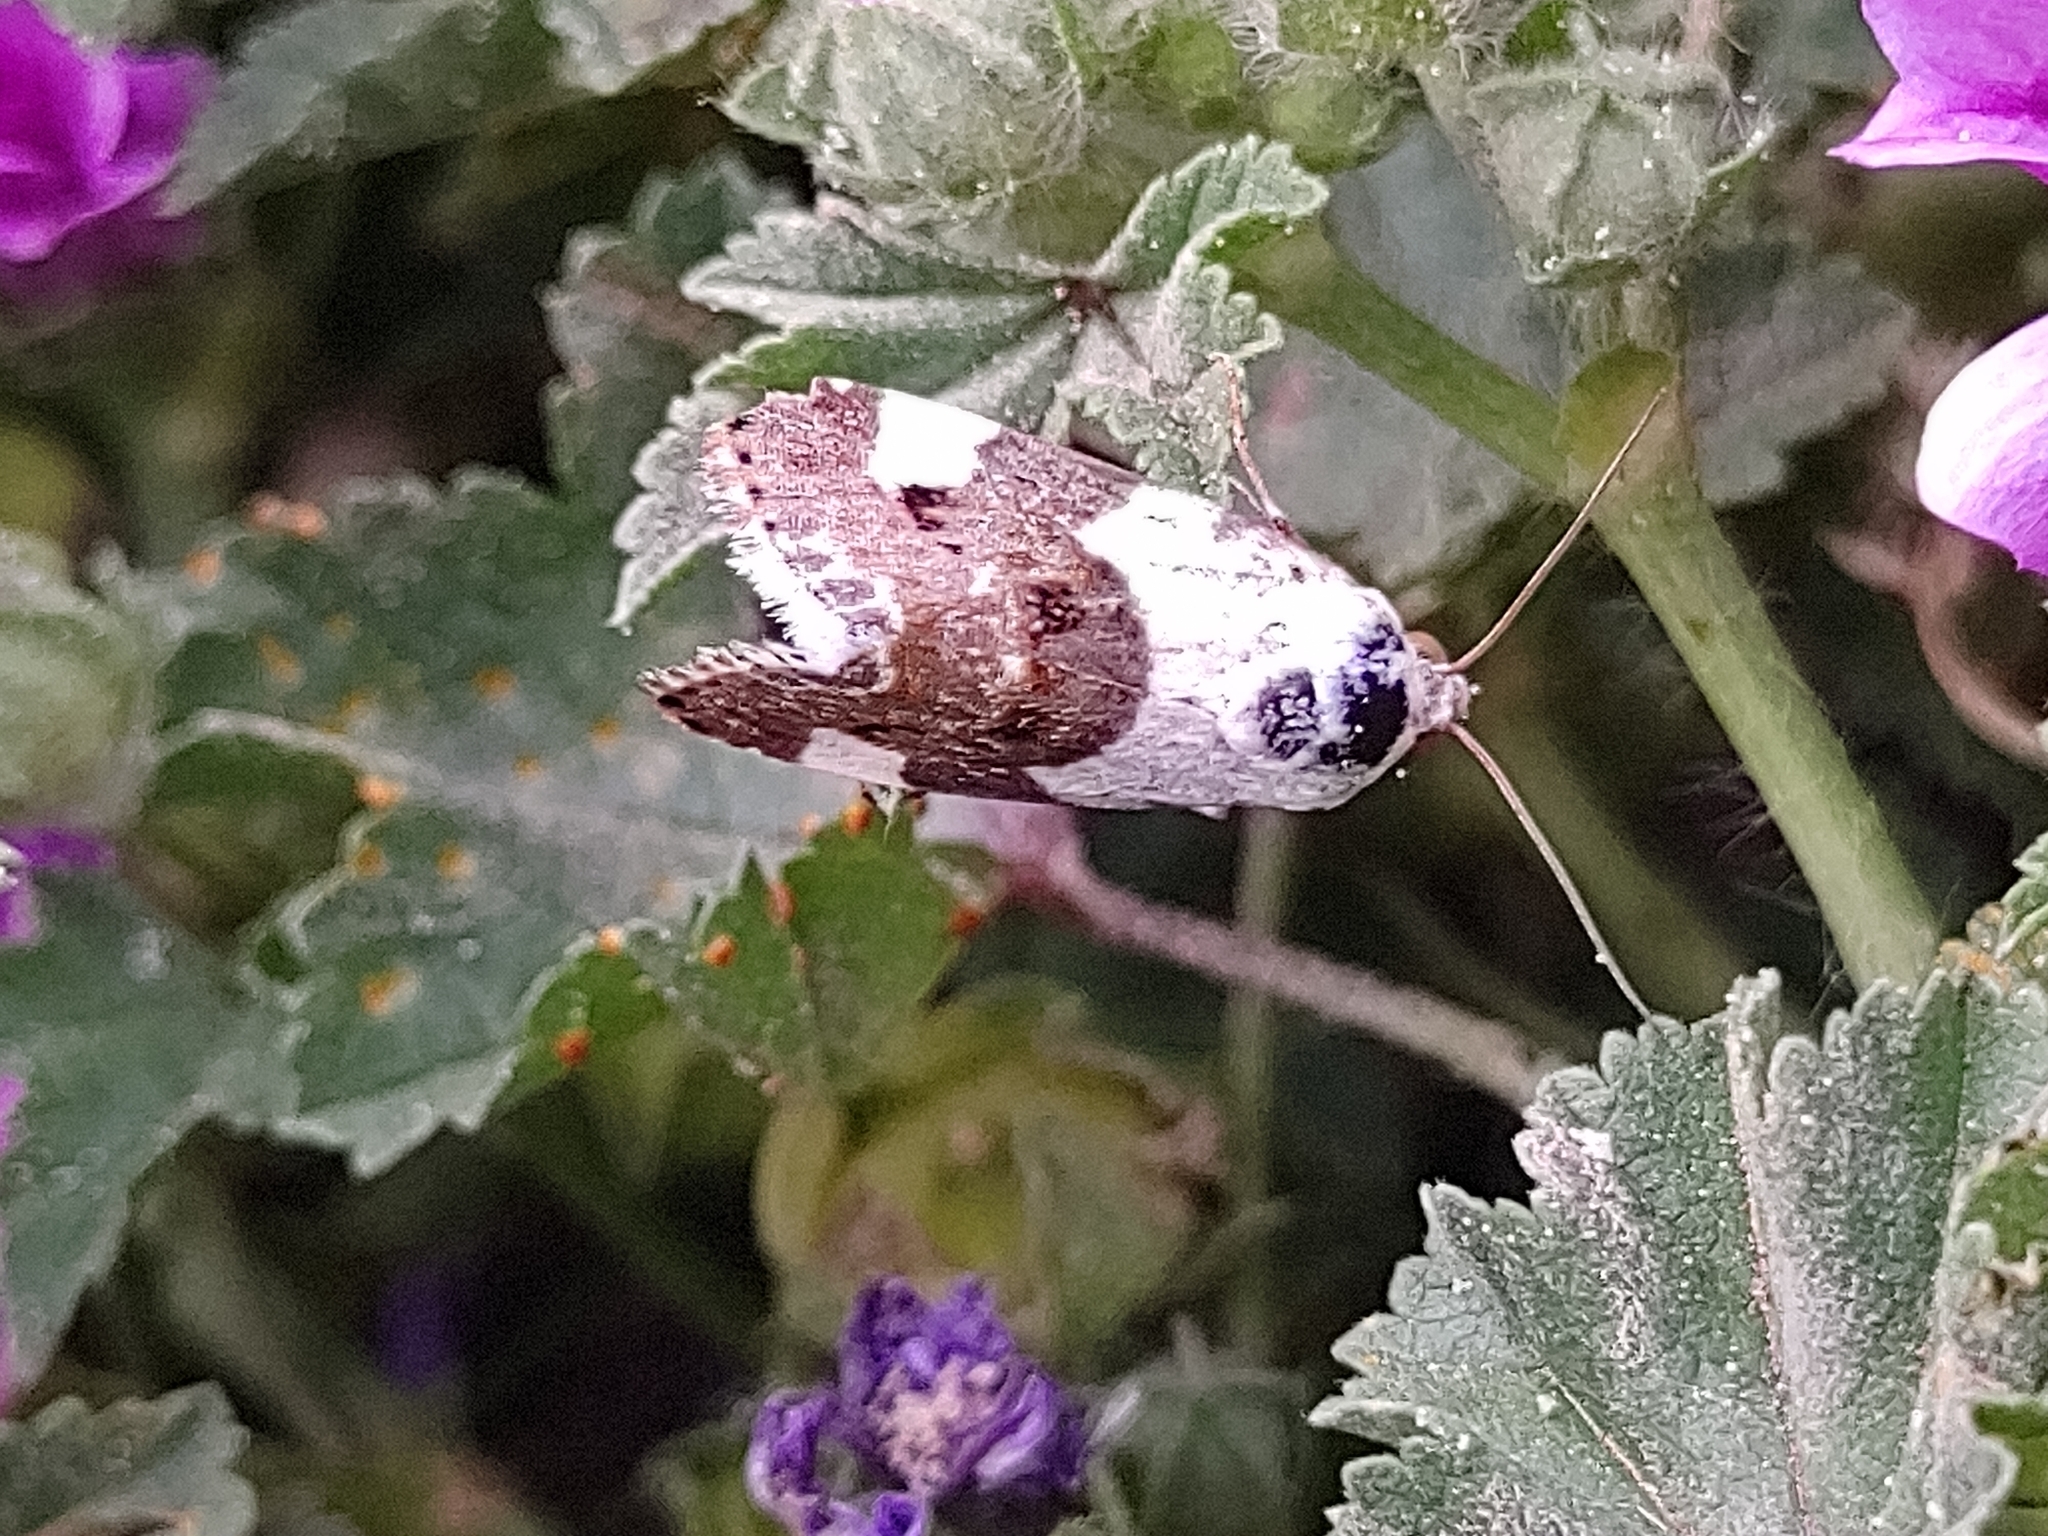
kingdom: Animalia
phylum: Arthropoda
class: Insecta
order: Lepidoptera
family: Noctuidae
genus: Acontia
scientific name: Acontia lucida
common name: Pale shoulder
